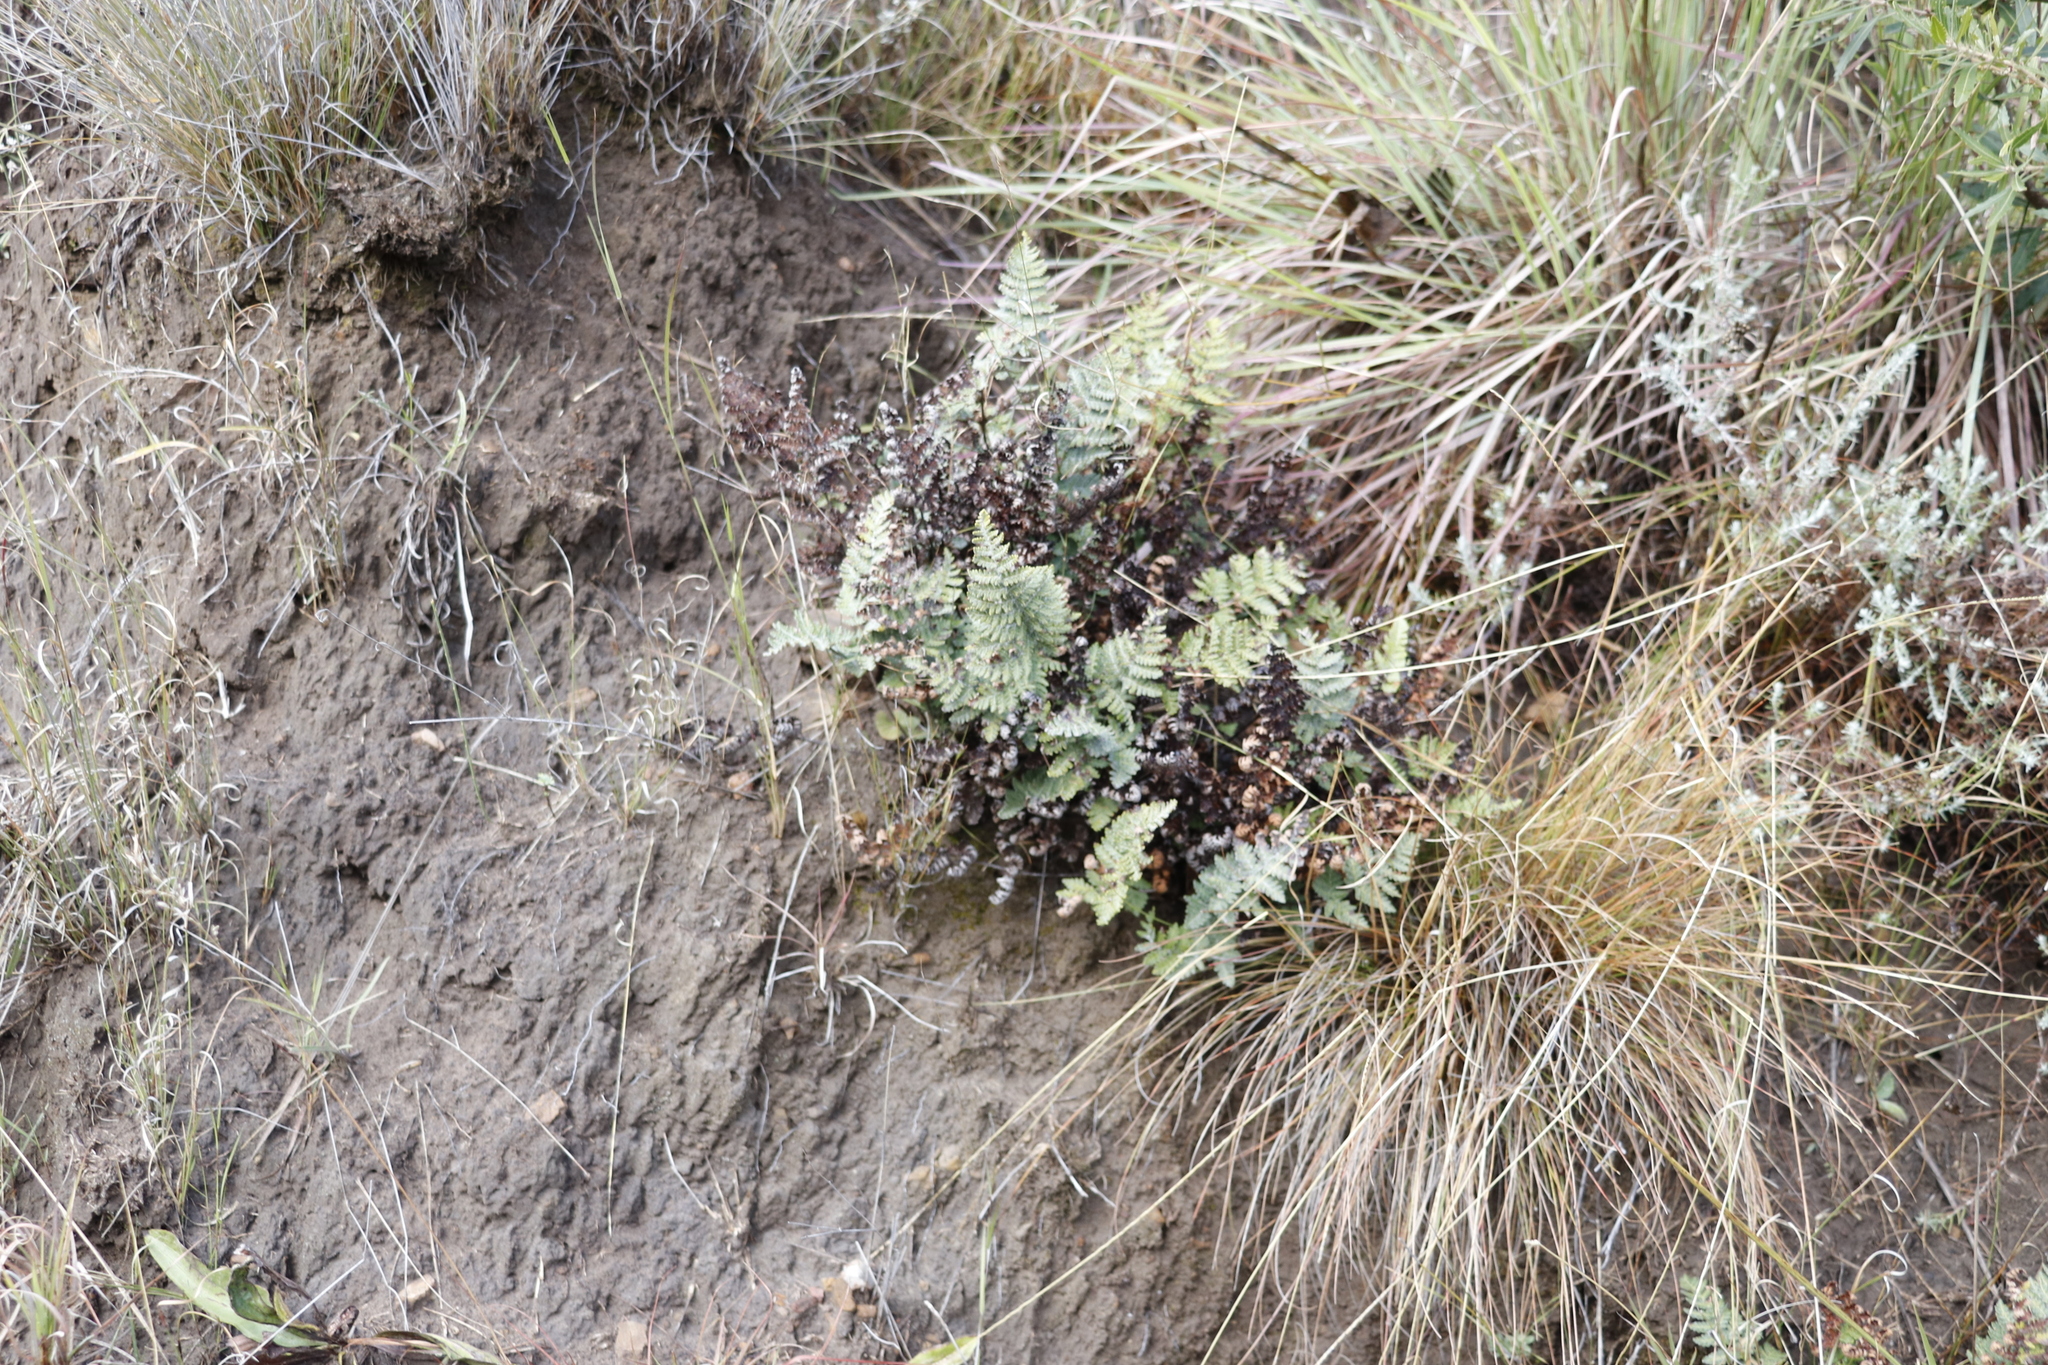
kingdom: Plantae
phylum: Tracheophyta
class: Polypodiopsida
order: Polypodiales
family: Pteridaceae
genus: Cheilanthes
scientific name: Cheilanthes eckloniana
